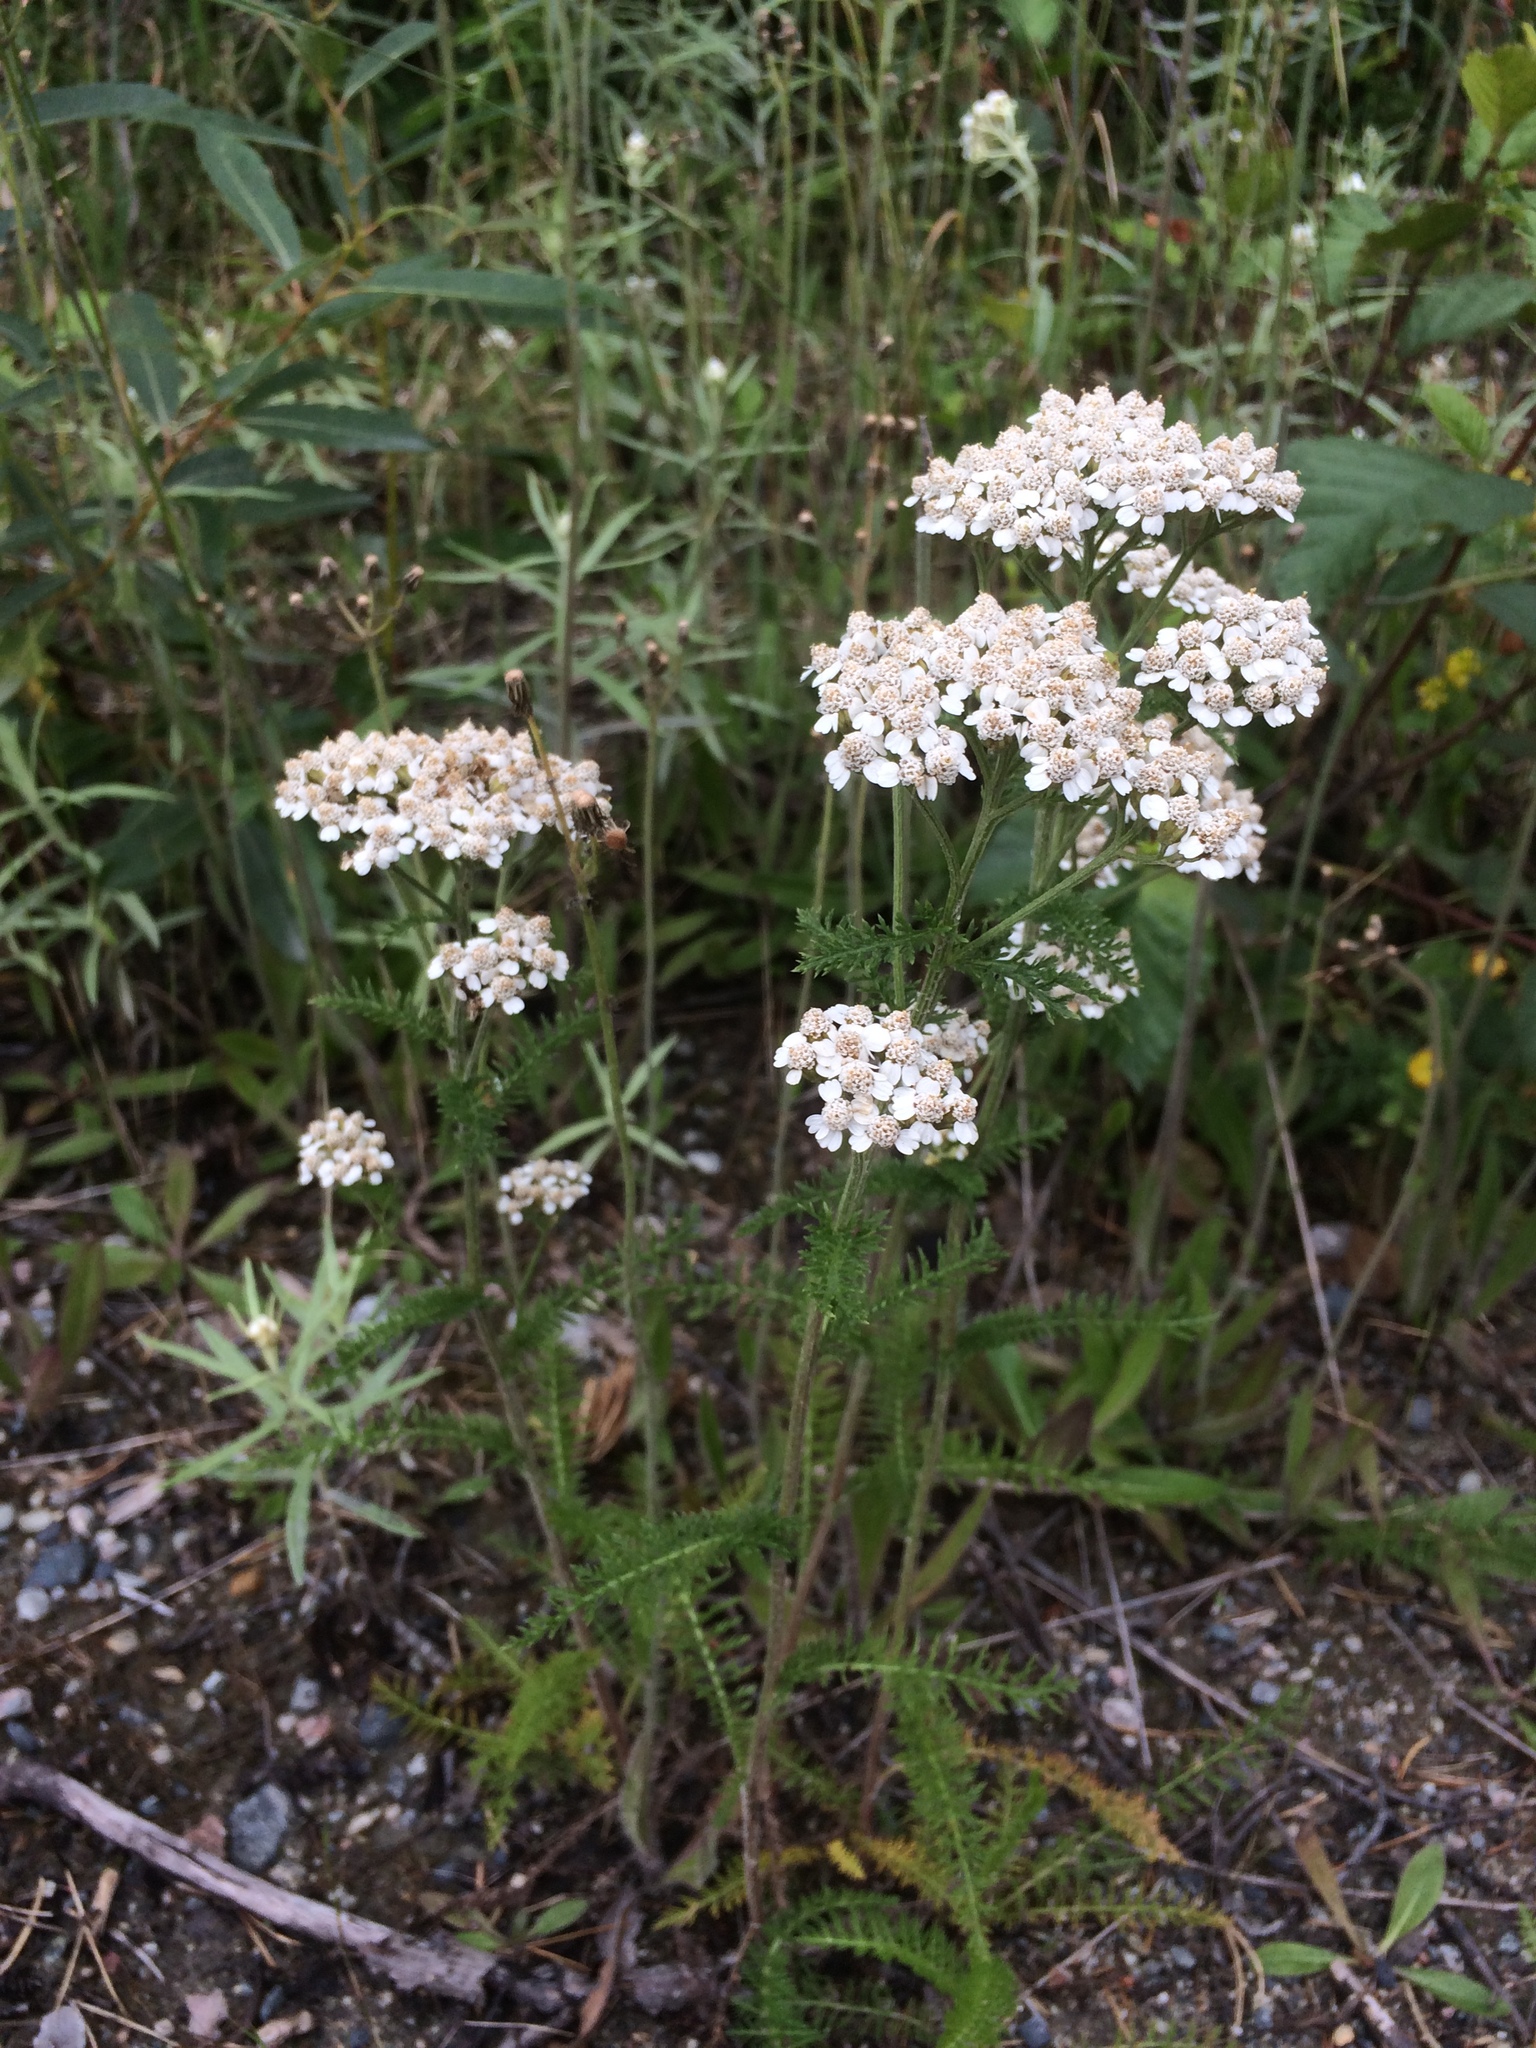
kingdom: Plantae
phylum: Tracheophyta
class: Magnoliopsida
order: Asterales
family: Asteraceae
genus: Achillea
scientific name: Achillea millefolium
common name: Yarrow
